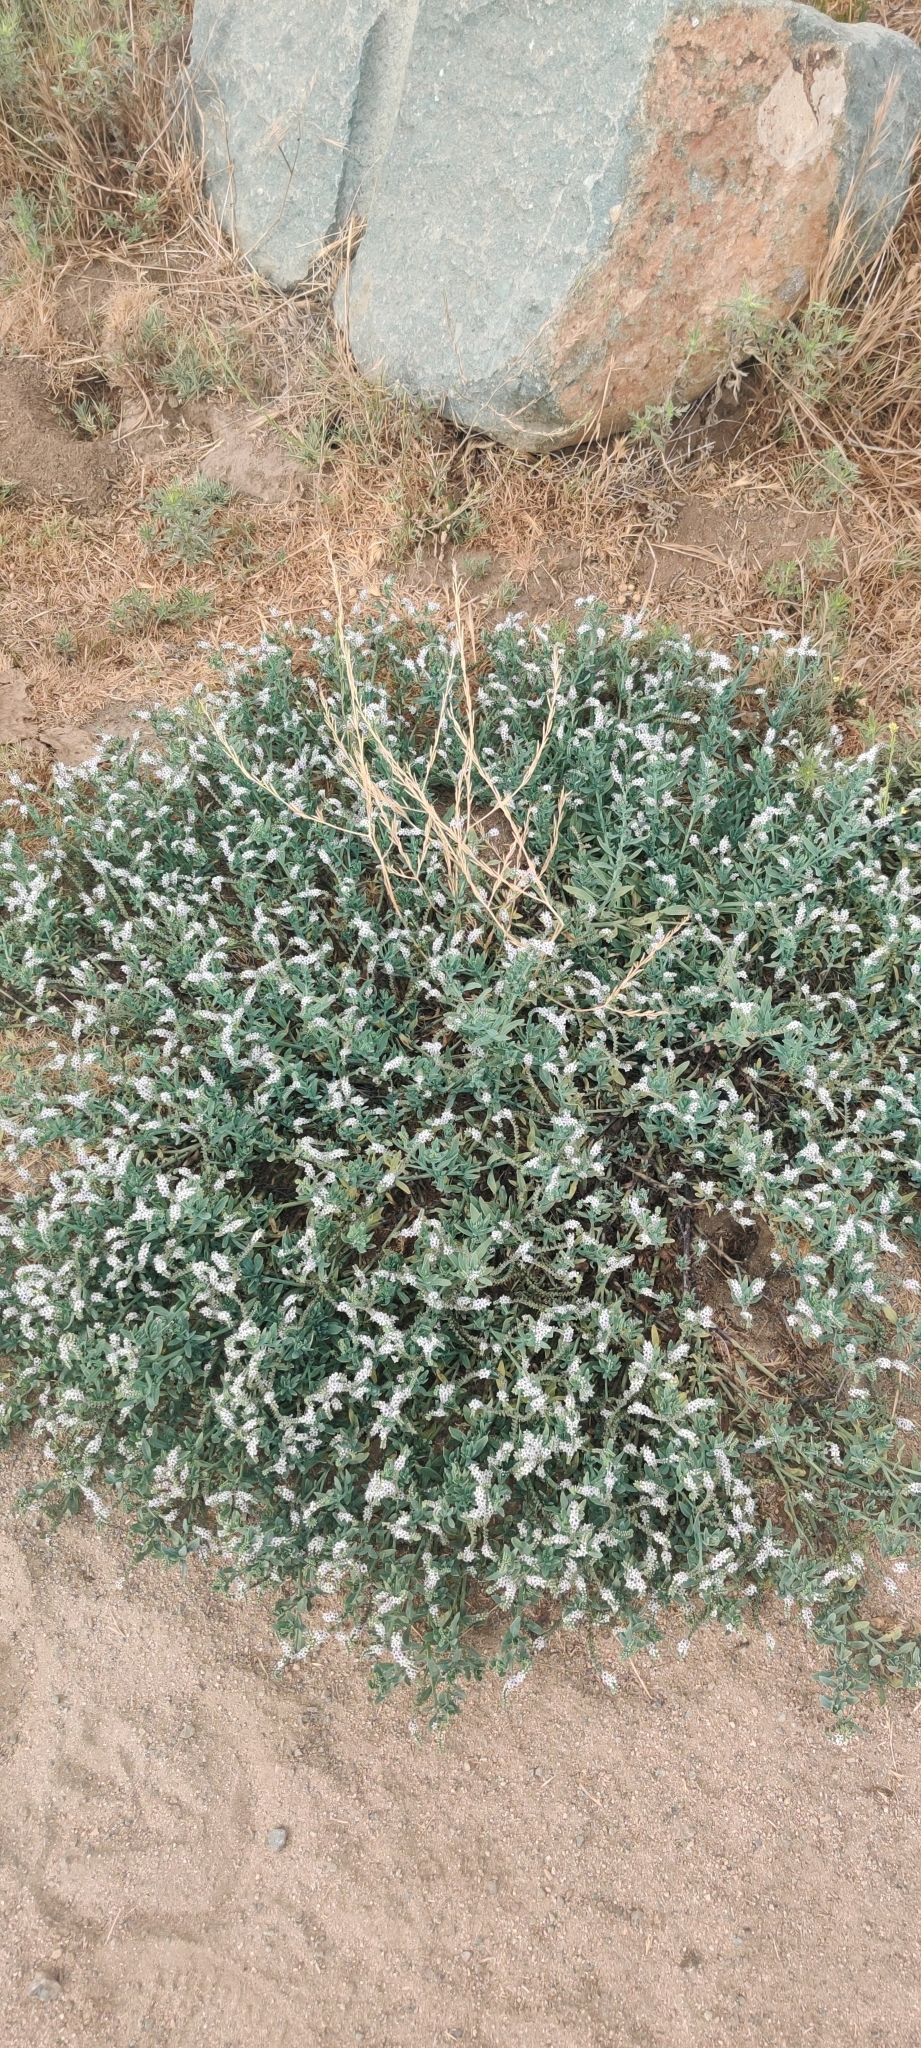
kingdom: Plantae
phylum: Tracheophyta
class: Magnoliopsida
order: Boraginales
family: Heliotropiaceae
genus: Heliotropium
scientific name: Heliotropium curassavicum
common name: Seaside heliotrope
